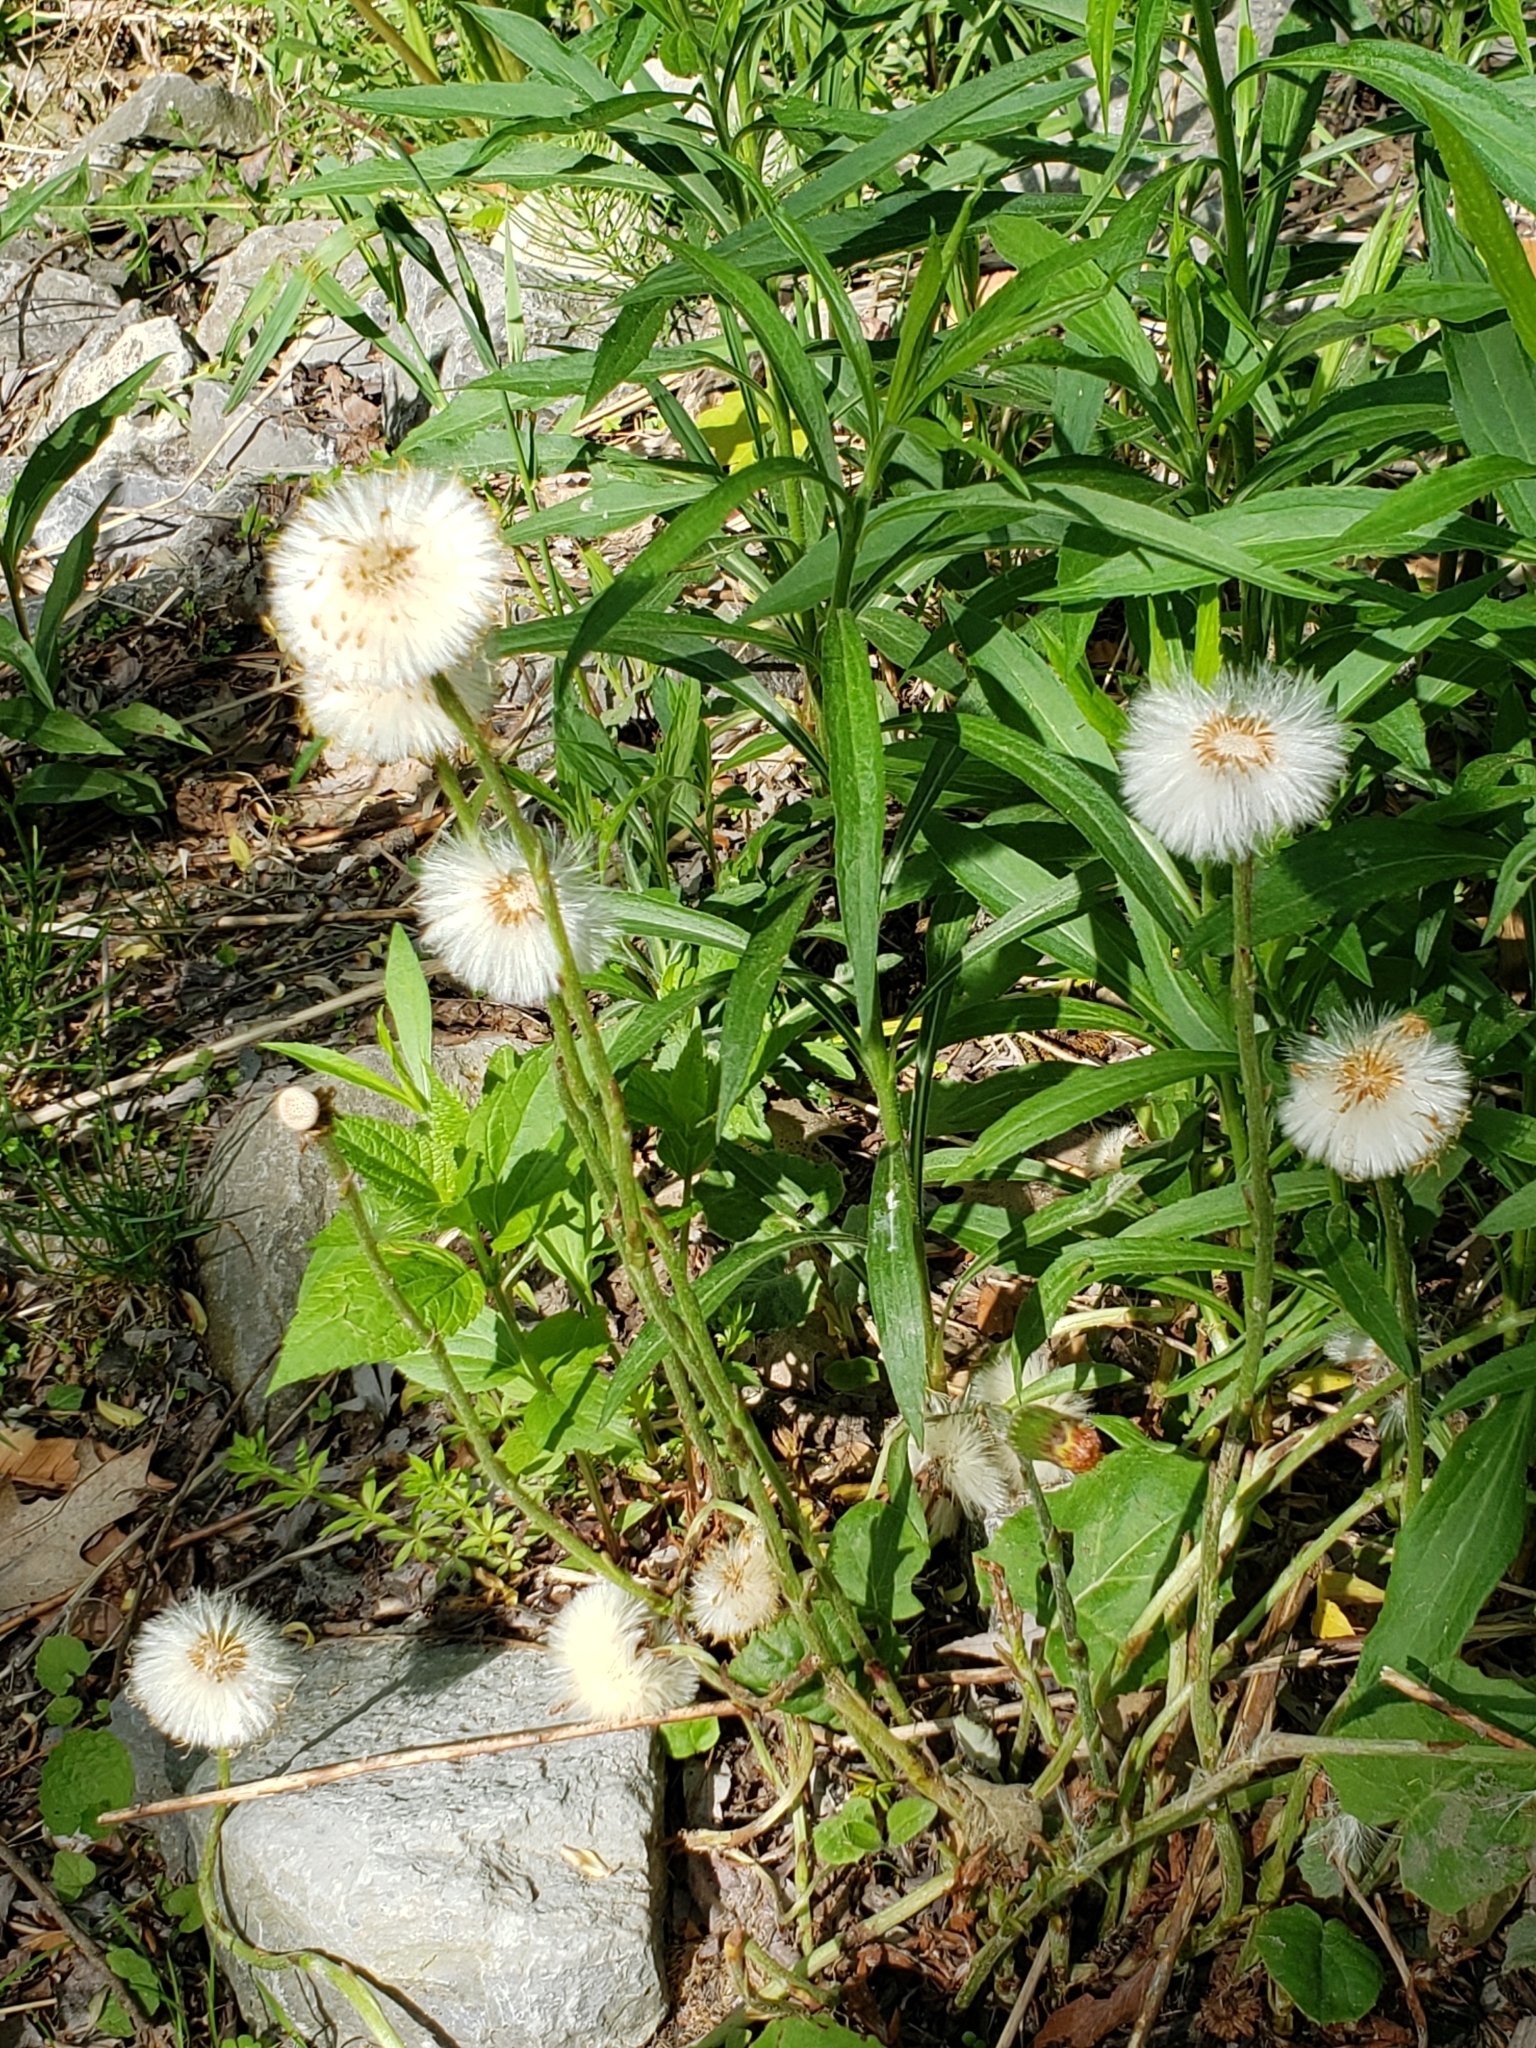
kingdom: Plantae
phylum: Tracheophyta
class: Magnoliopsida
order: Asterales
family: Asteraceae
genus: Tussilago
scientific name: Tussilago farfara
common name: Coltsfoot
